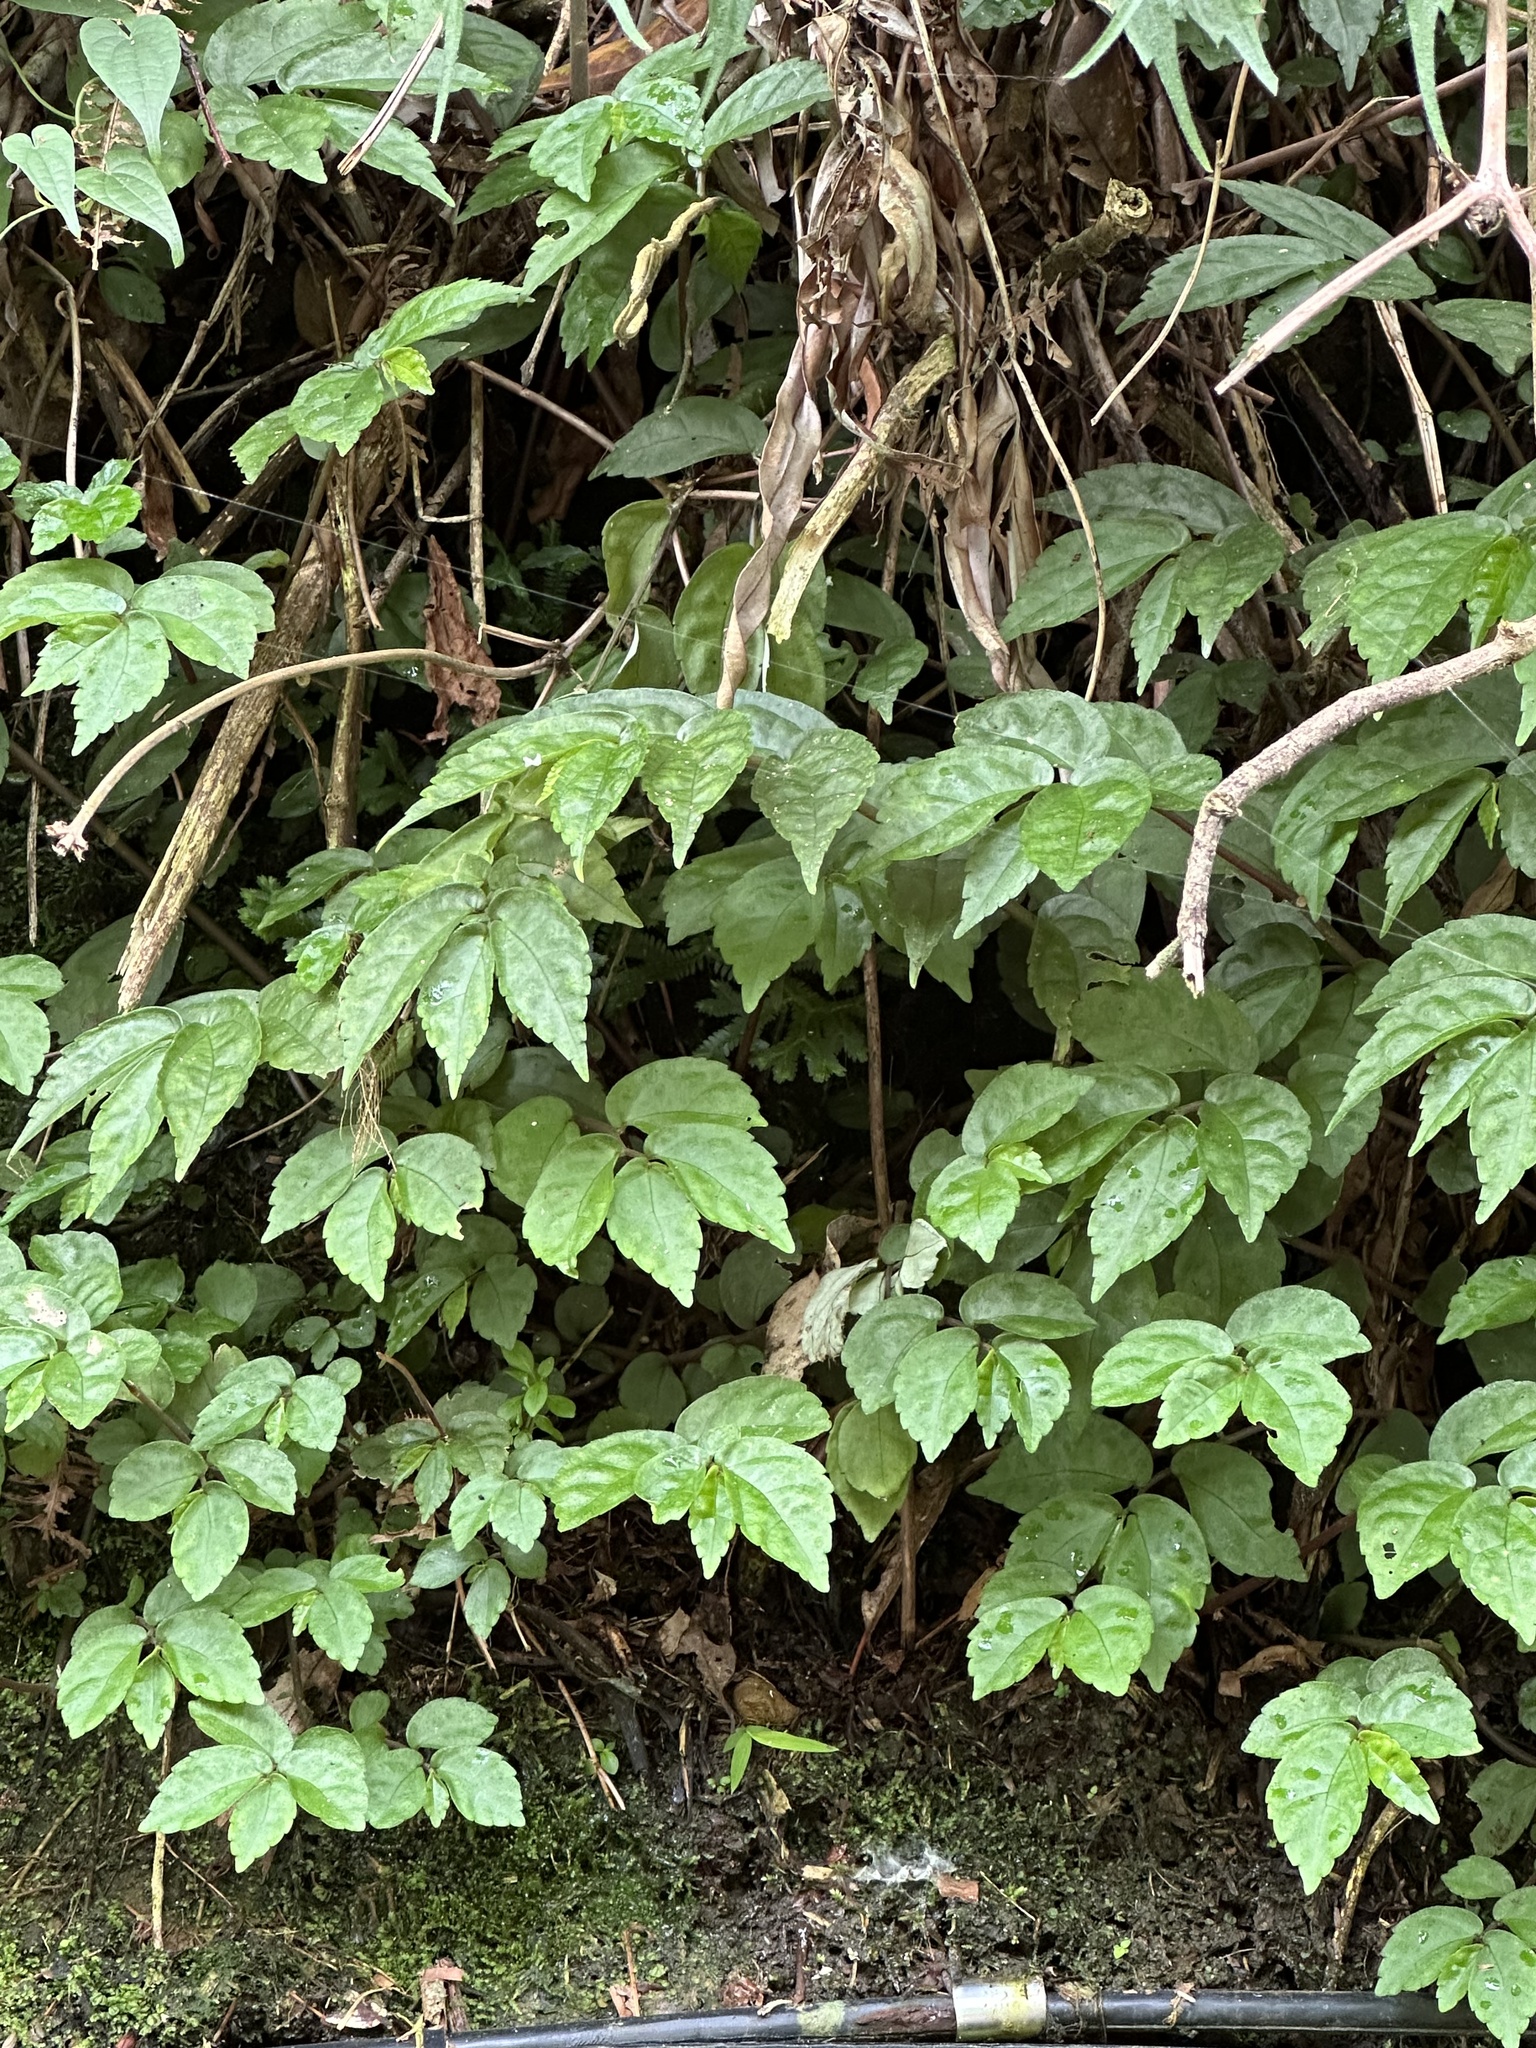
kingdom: Plantae
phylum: Tracheophyta
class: Magnoliopsida
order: Rosales
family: Urticaceae
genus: Elatostema
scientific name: Elatostema radicans
